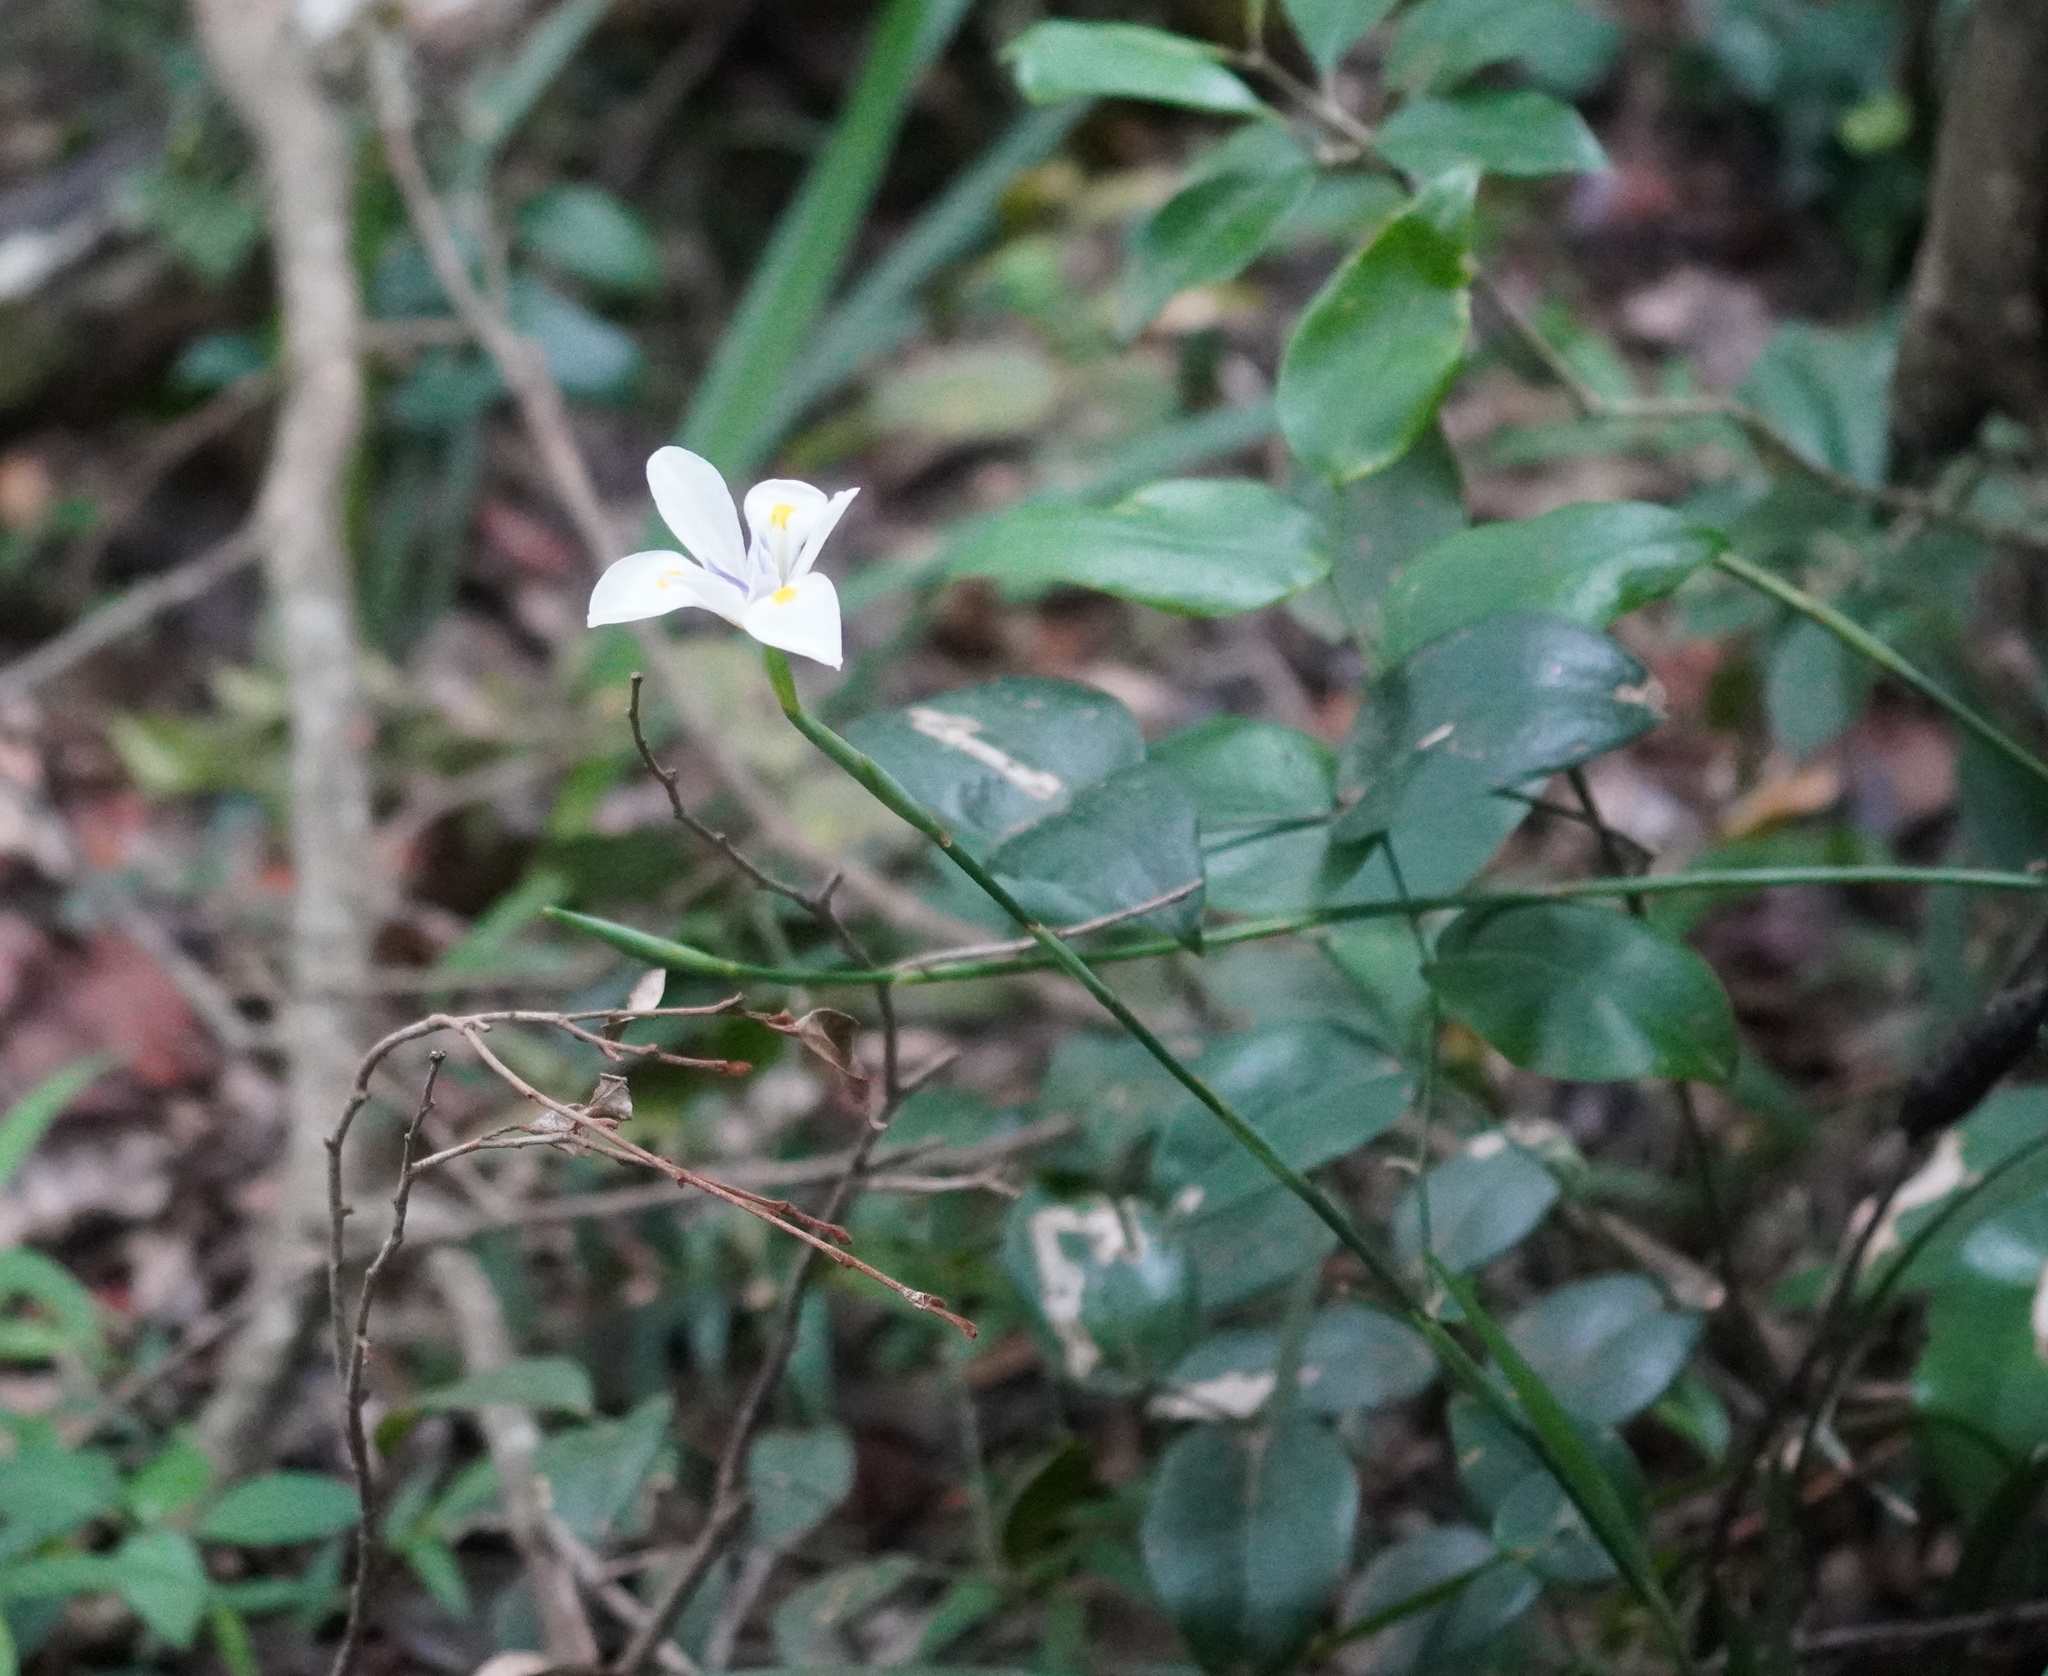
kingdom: Plantae
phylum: Tracheophyta
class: Liliopsida
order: Asparagales
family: Iridaceae
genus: Dietes
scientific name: Dietes iridioides
